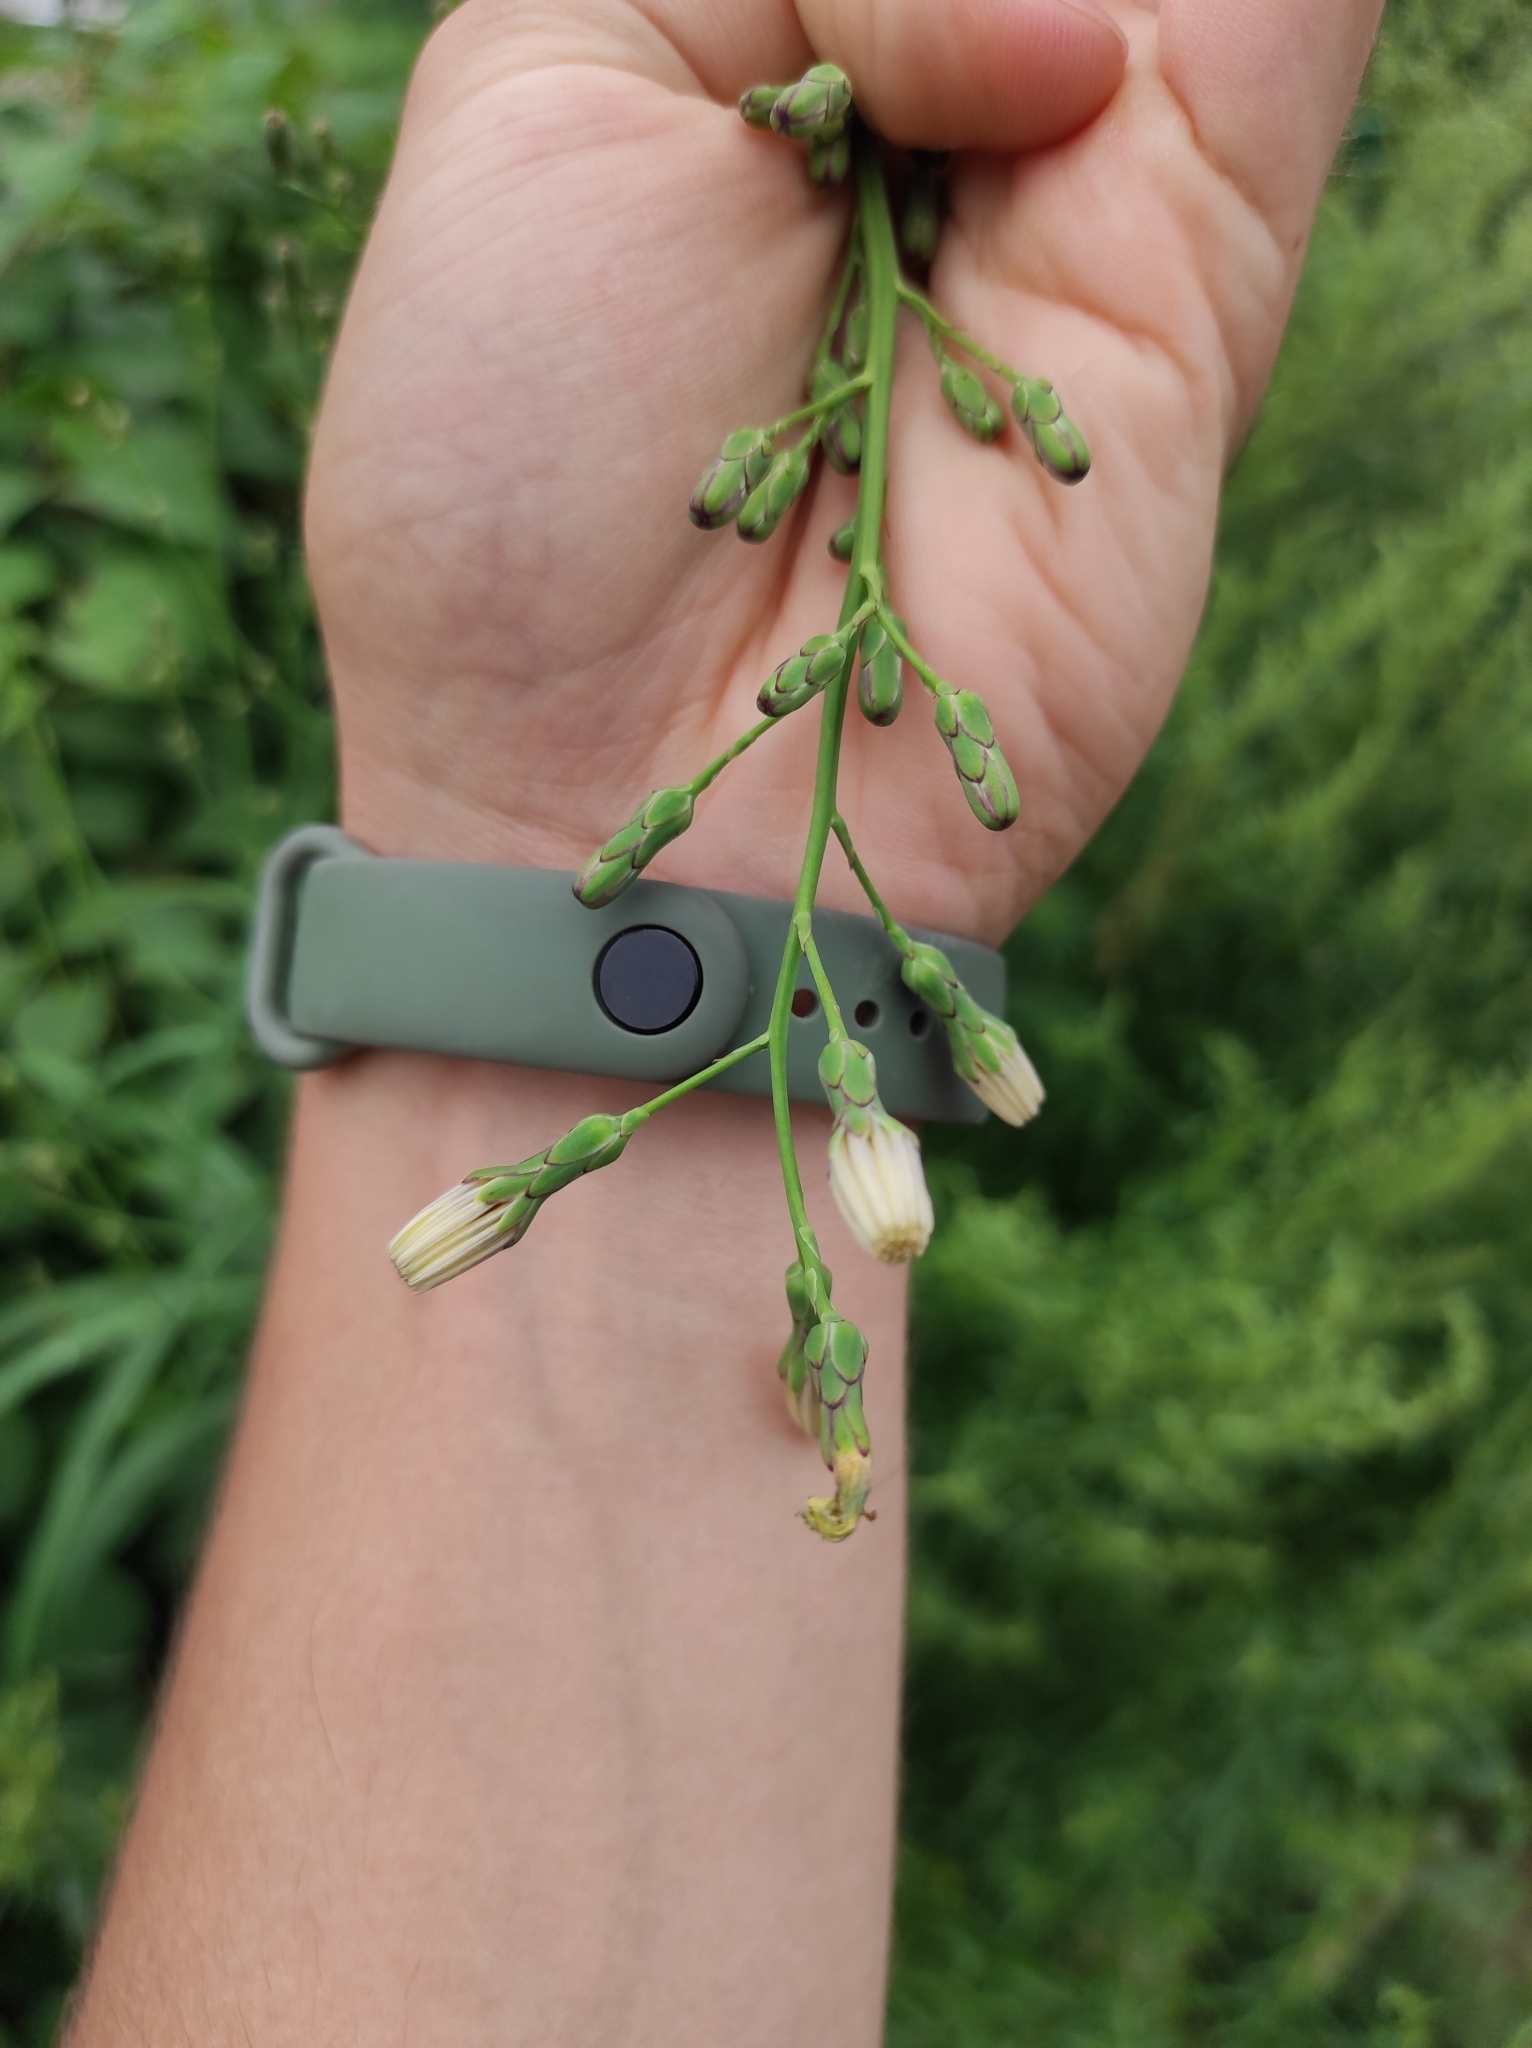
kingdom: Plantae
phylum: Tracheophyta
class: Magnoliopsida
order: Asterales
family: Asteraceae
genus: Lactuca
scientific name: Lactuca indica
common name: Wild lettuce
